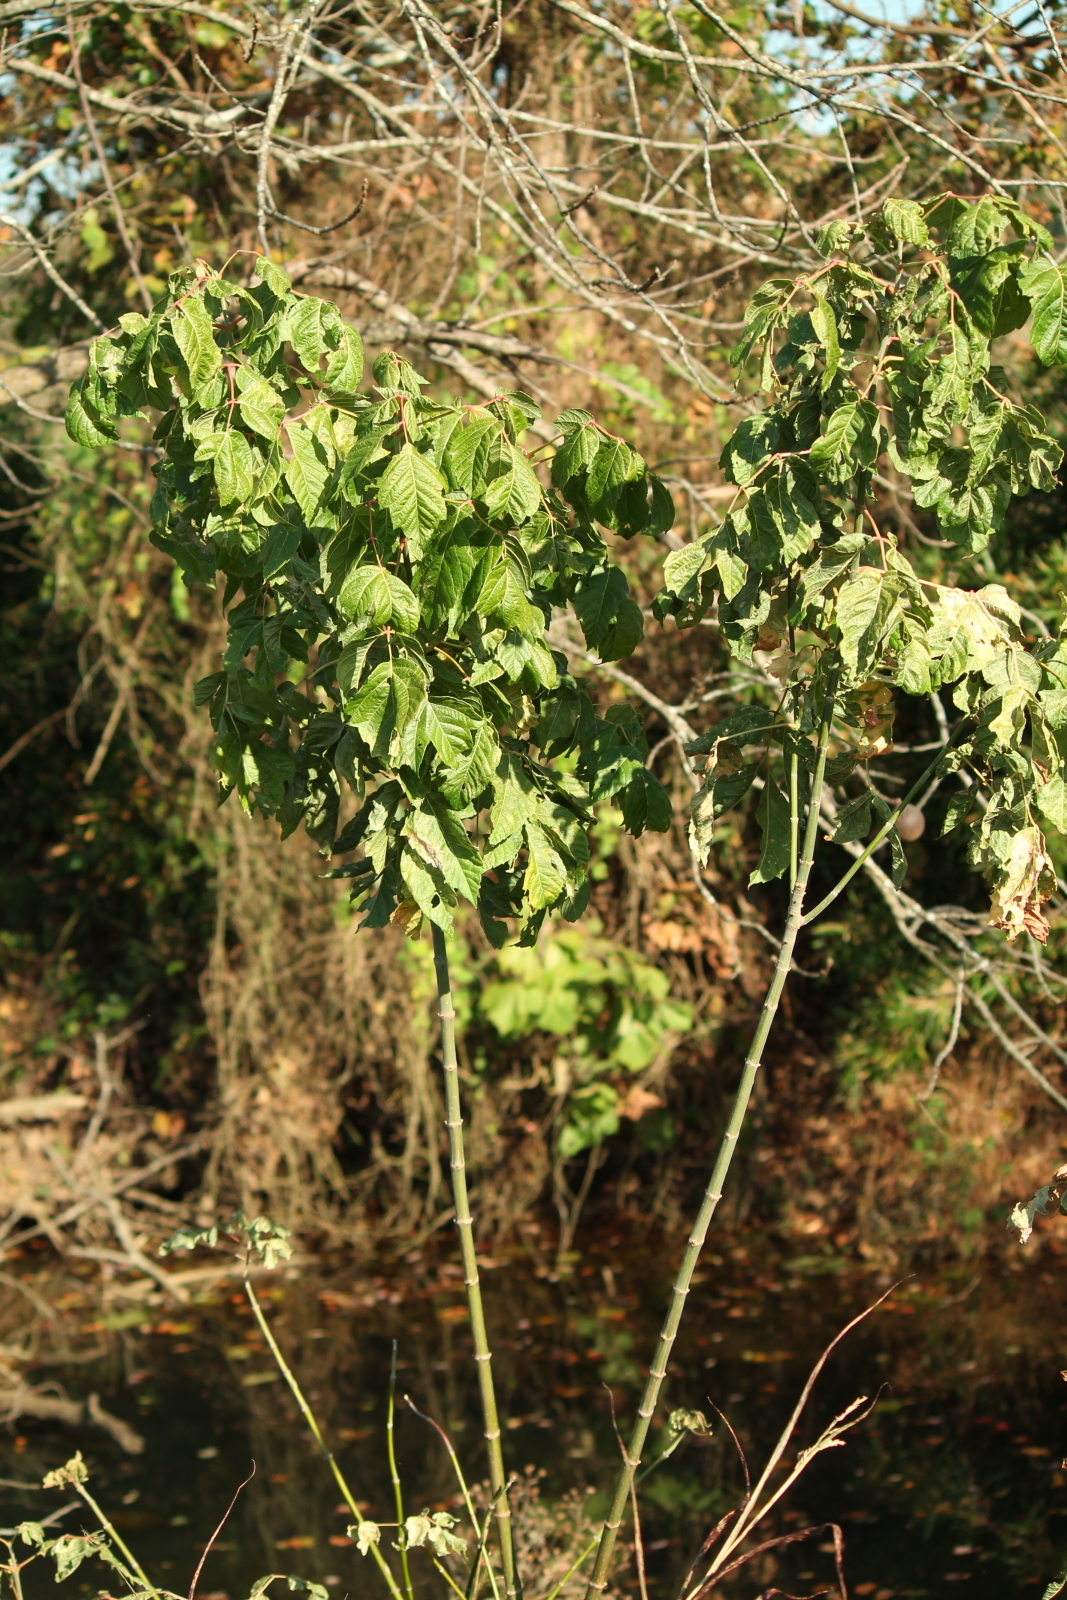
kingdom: Plantae
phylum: Tracheophyta
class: Magnoliopsida
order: Sapindales
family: Sapindaceae
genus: Acer
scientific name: Acer negundo
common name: Ashleaf maple
